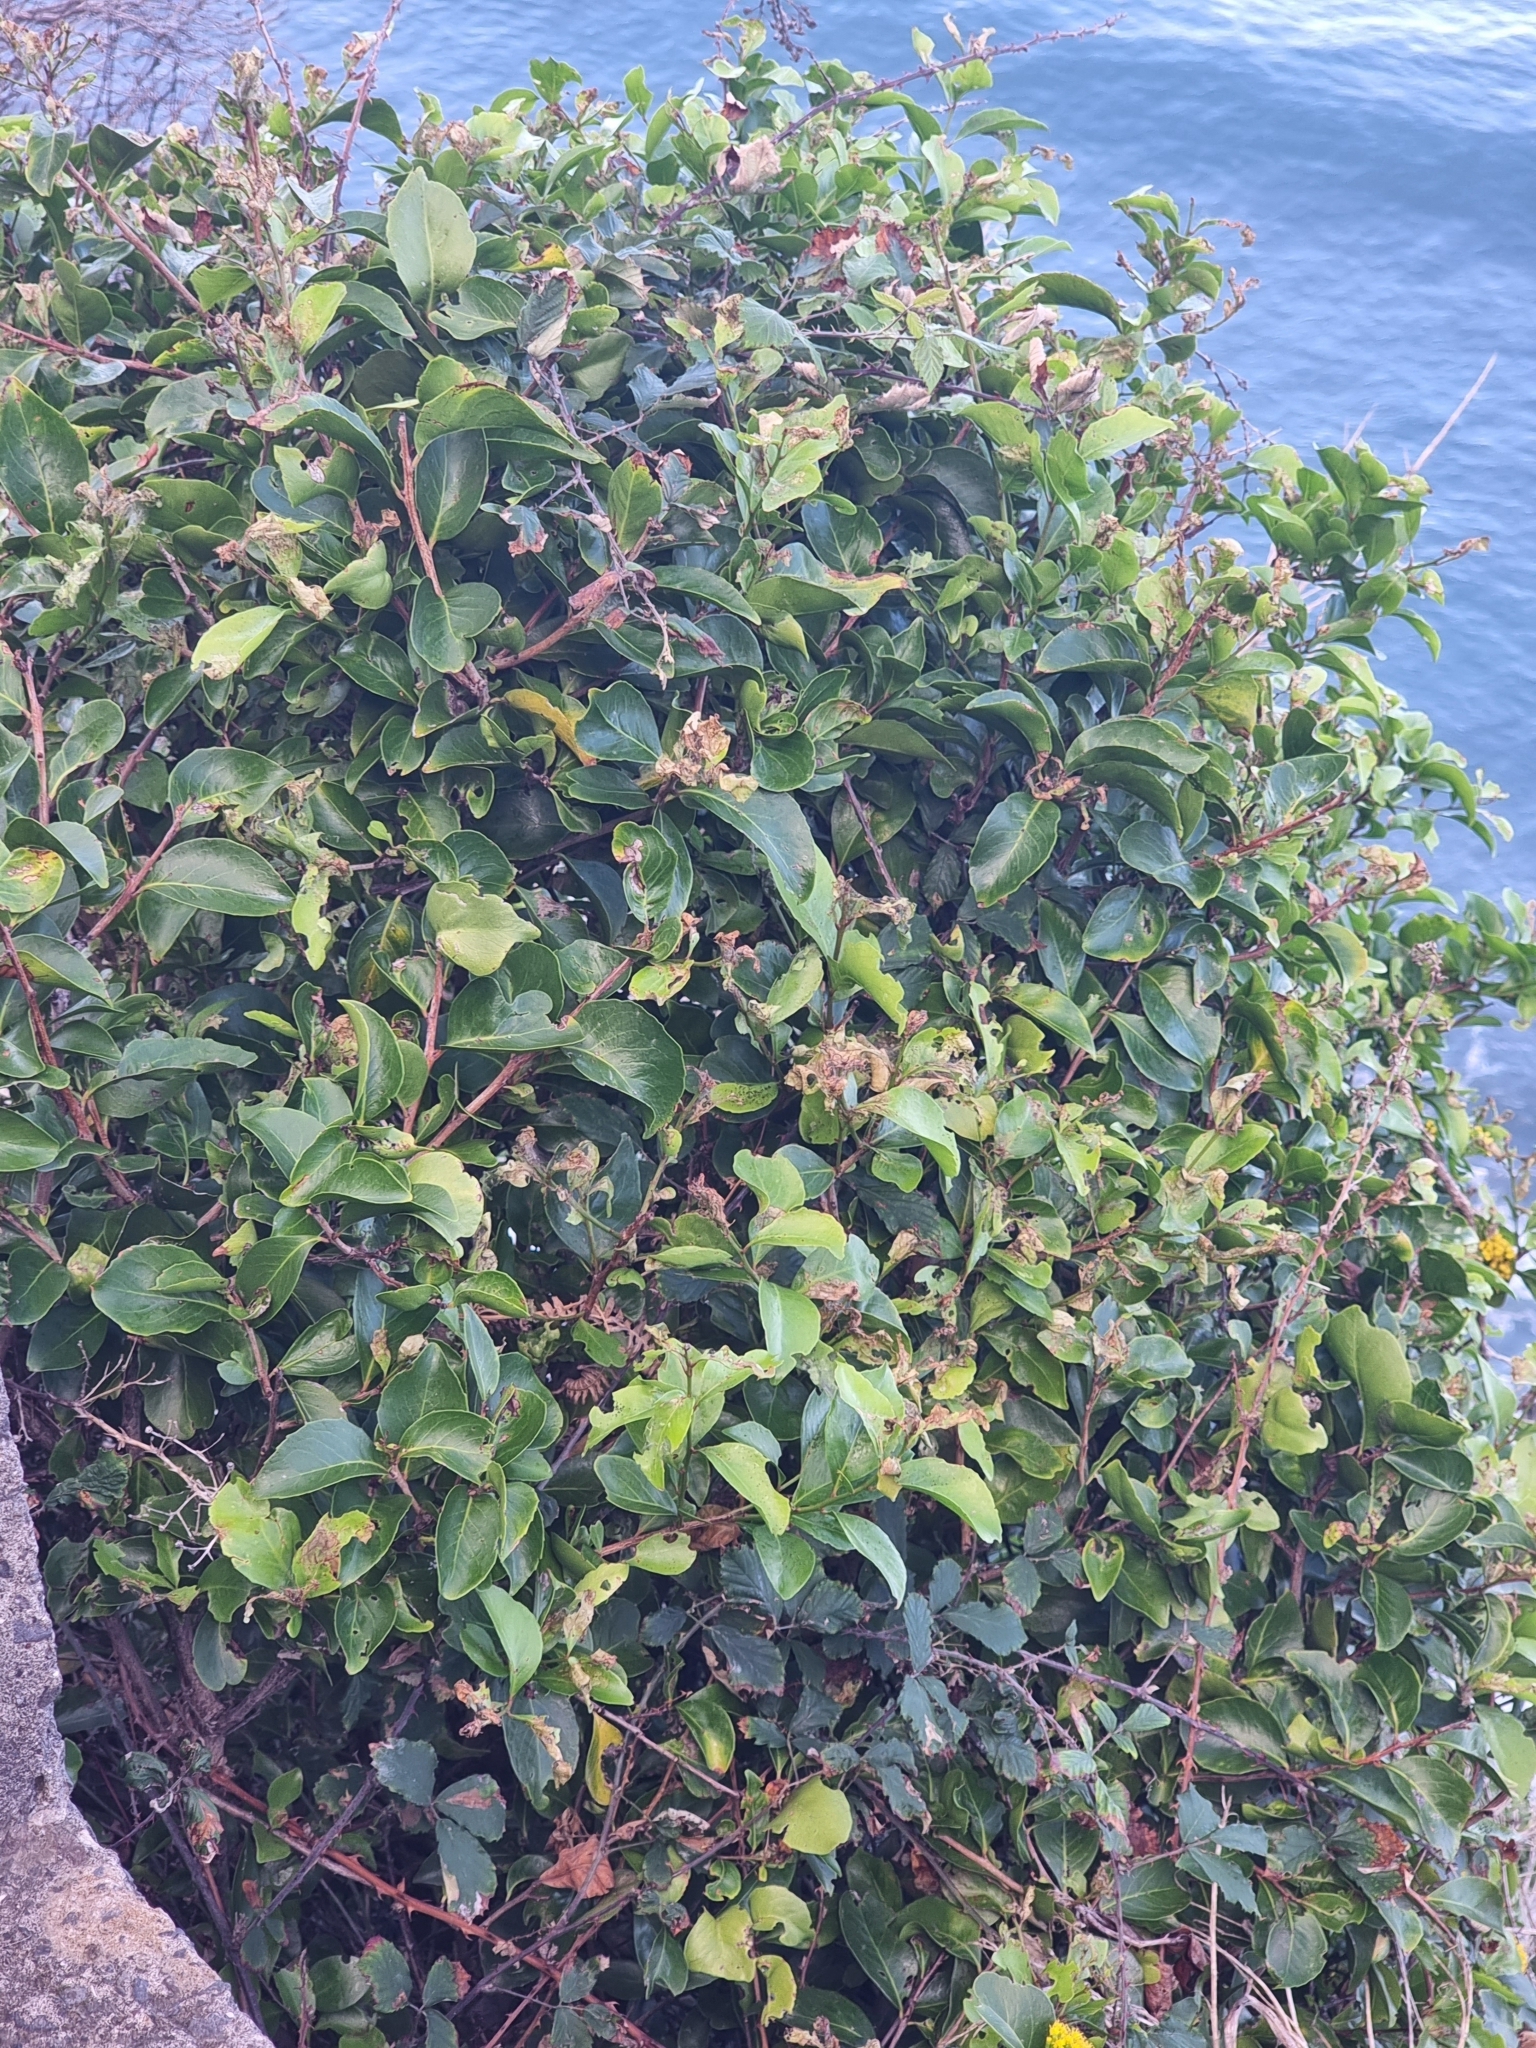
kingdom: Plantae
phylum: Tracheophyta
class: Magnoliopsida
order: Celastrales
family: Celastraceae
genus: Gymnosporia
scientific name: Gymnosporia dryandri
